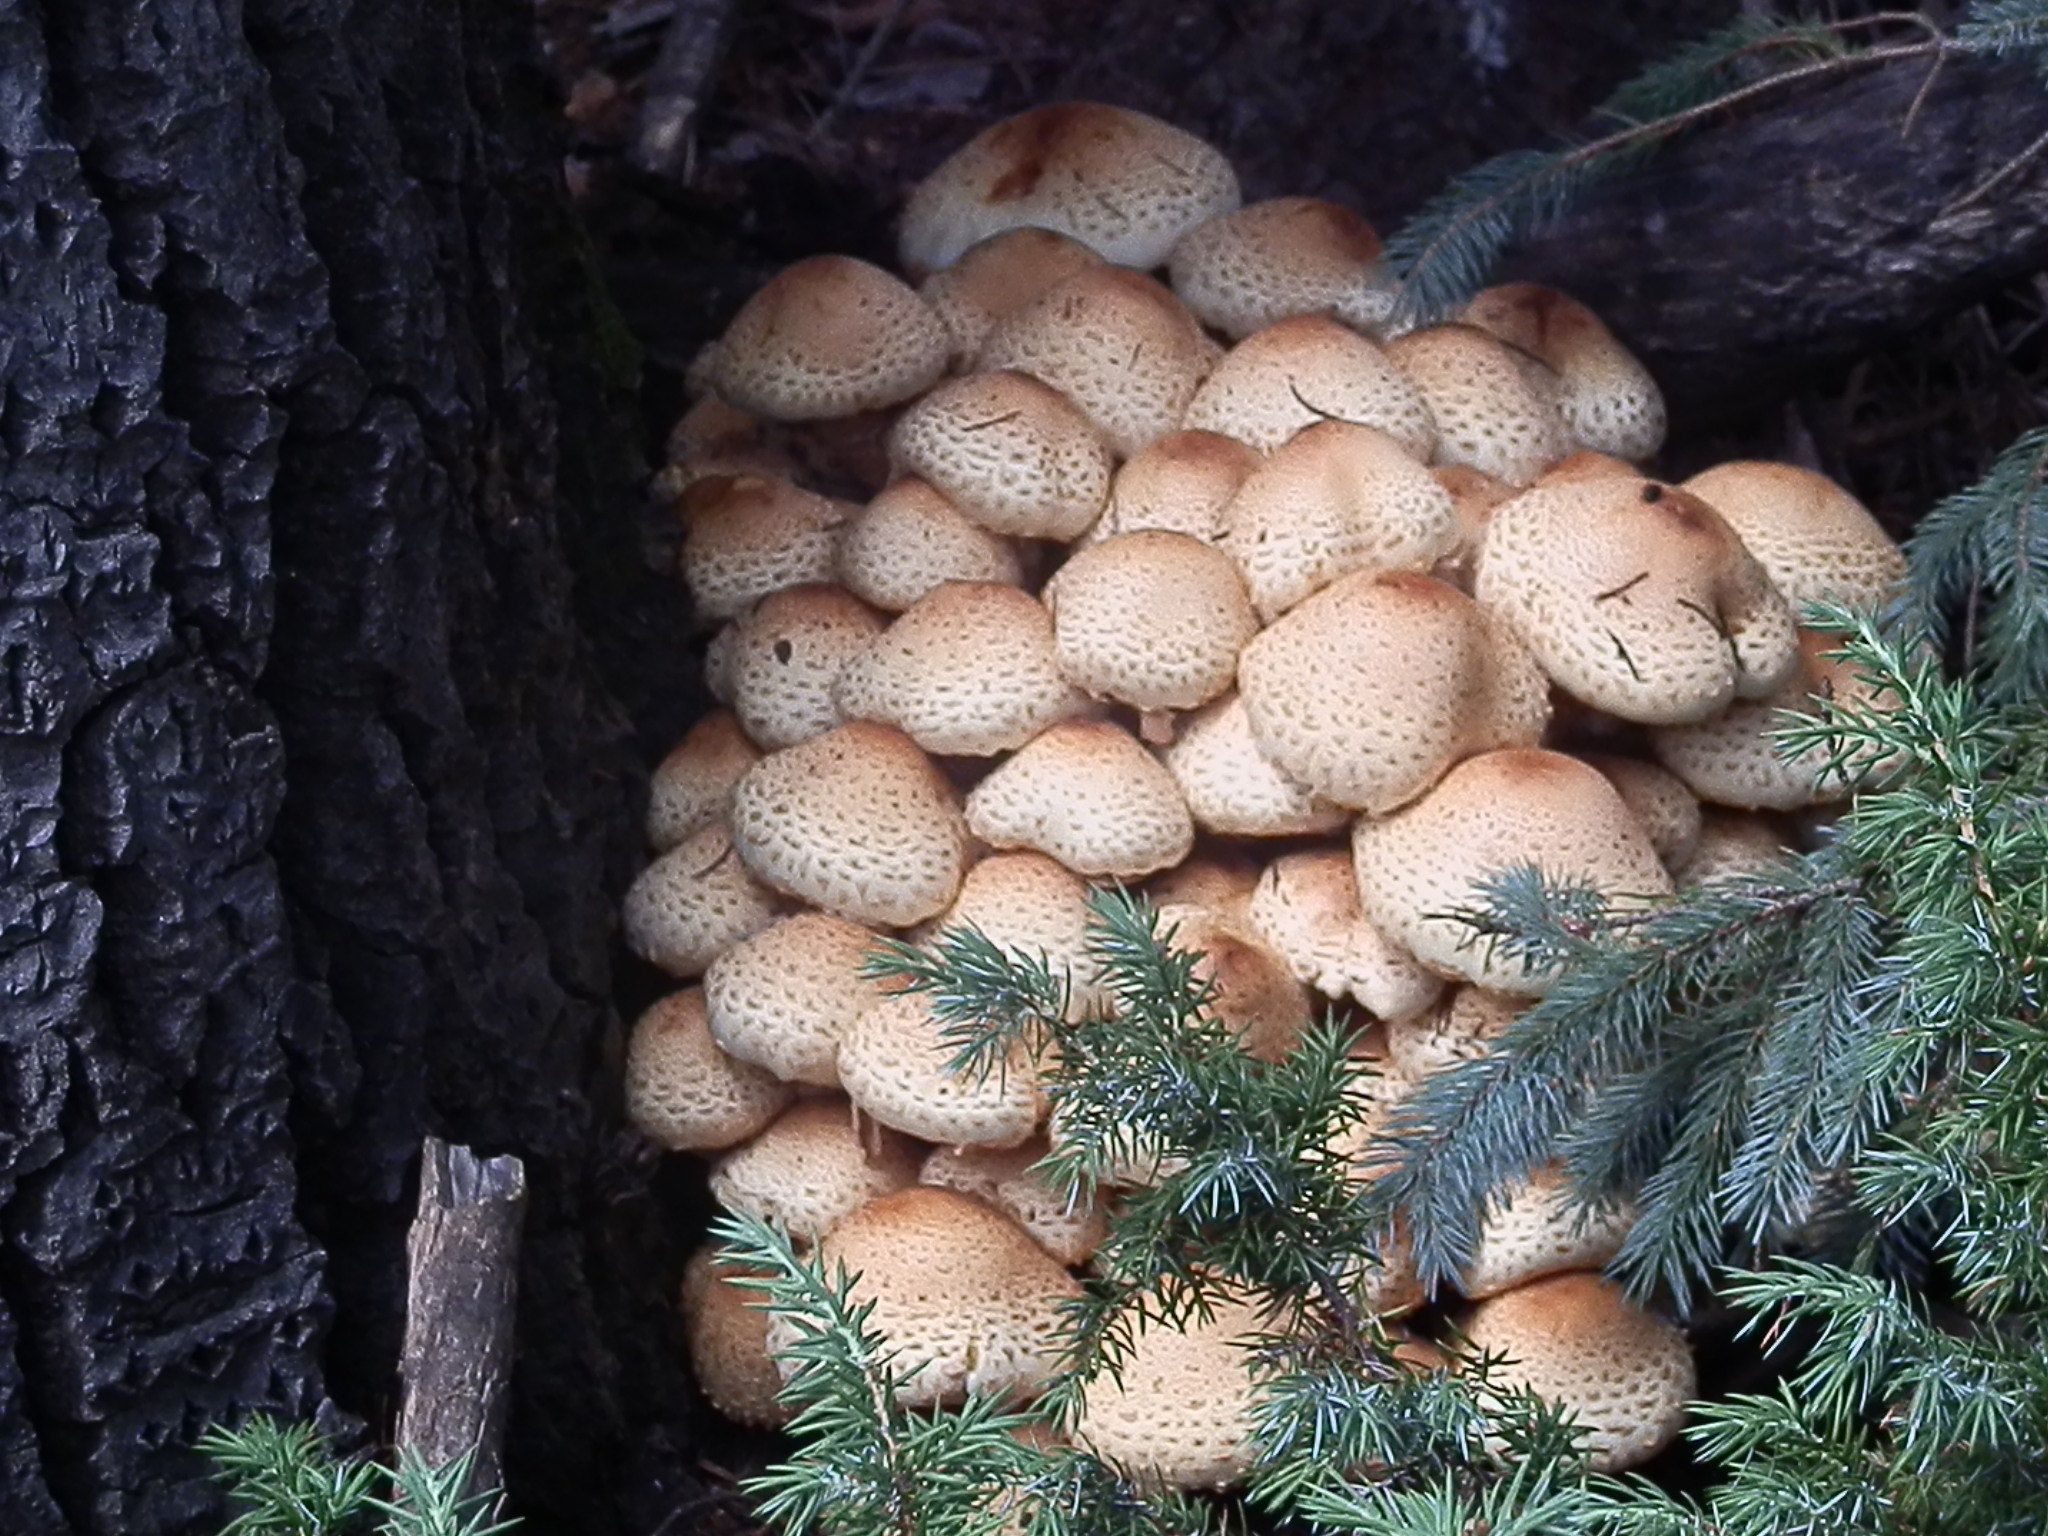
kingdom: Fungi
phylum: Basidiomycota
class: Agaricomycetes
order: Agaricales
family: Strophariaceae
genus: Pholiota
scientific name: Pholiota squarrosa
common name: Shaggy pholiota
